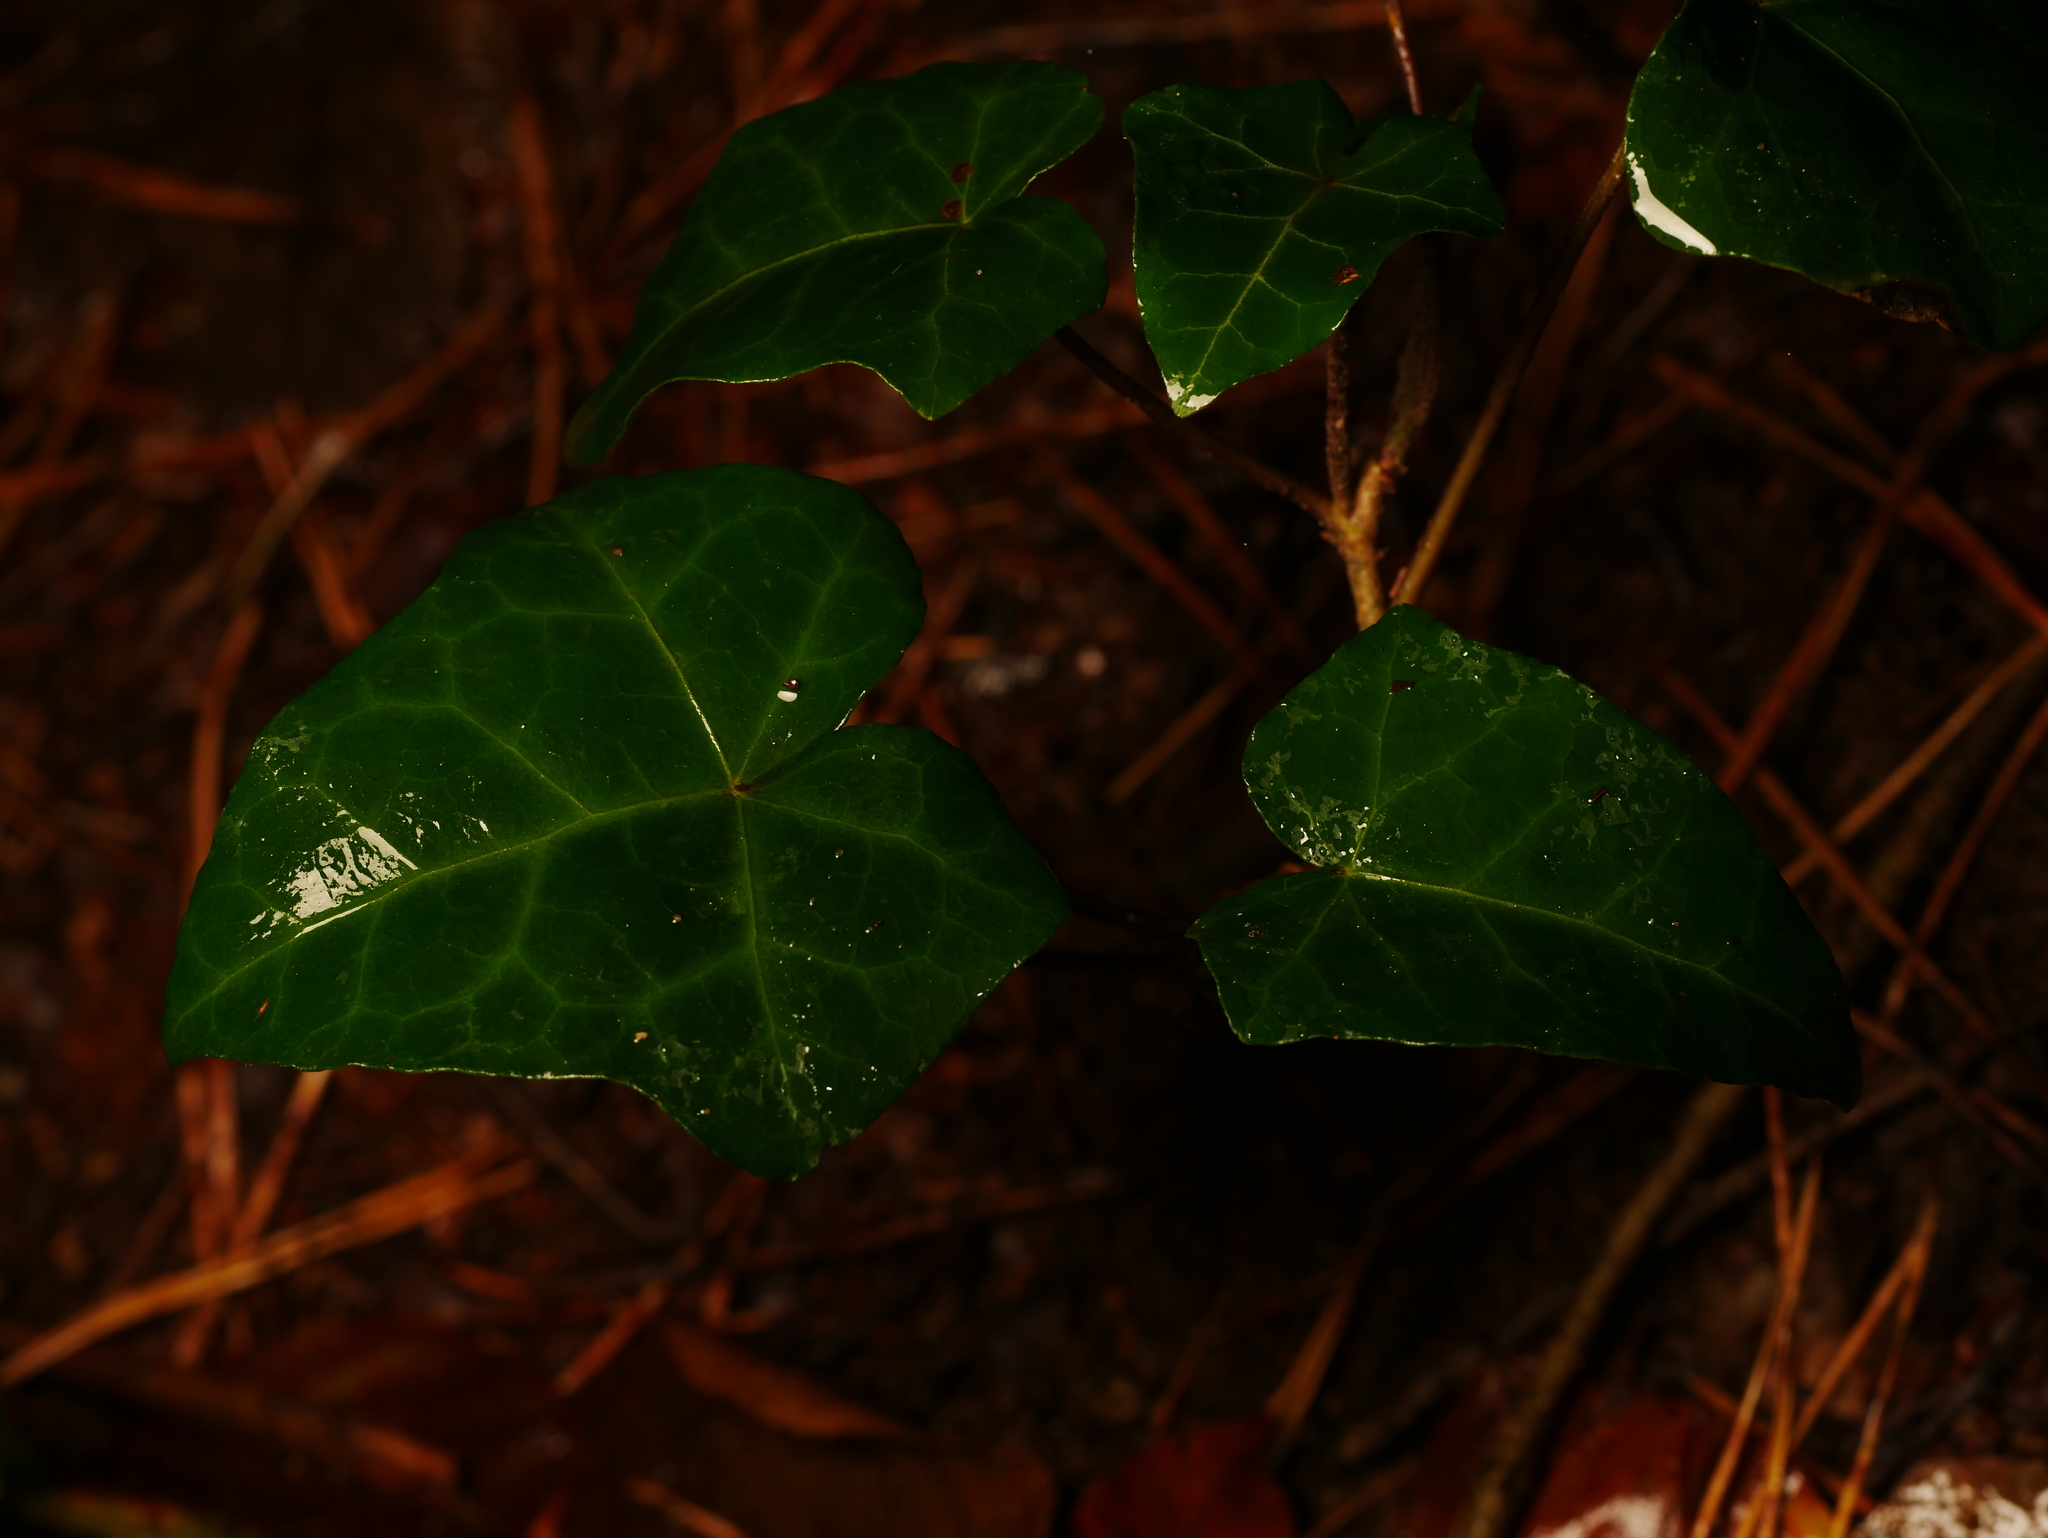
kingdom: Plantae
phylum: Tracheophyta
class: Magnoliopsida
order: Apiales
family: Araliaceae
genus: Hedera
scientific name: Hedera helix
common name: Ivy
